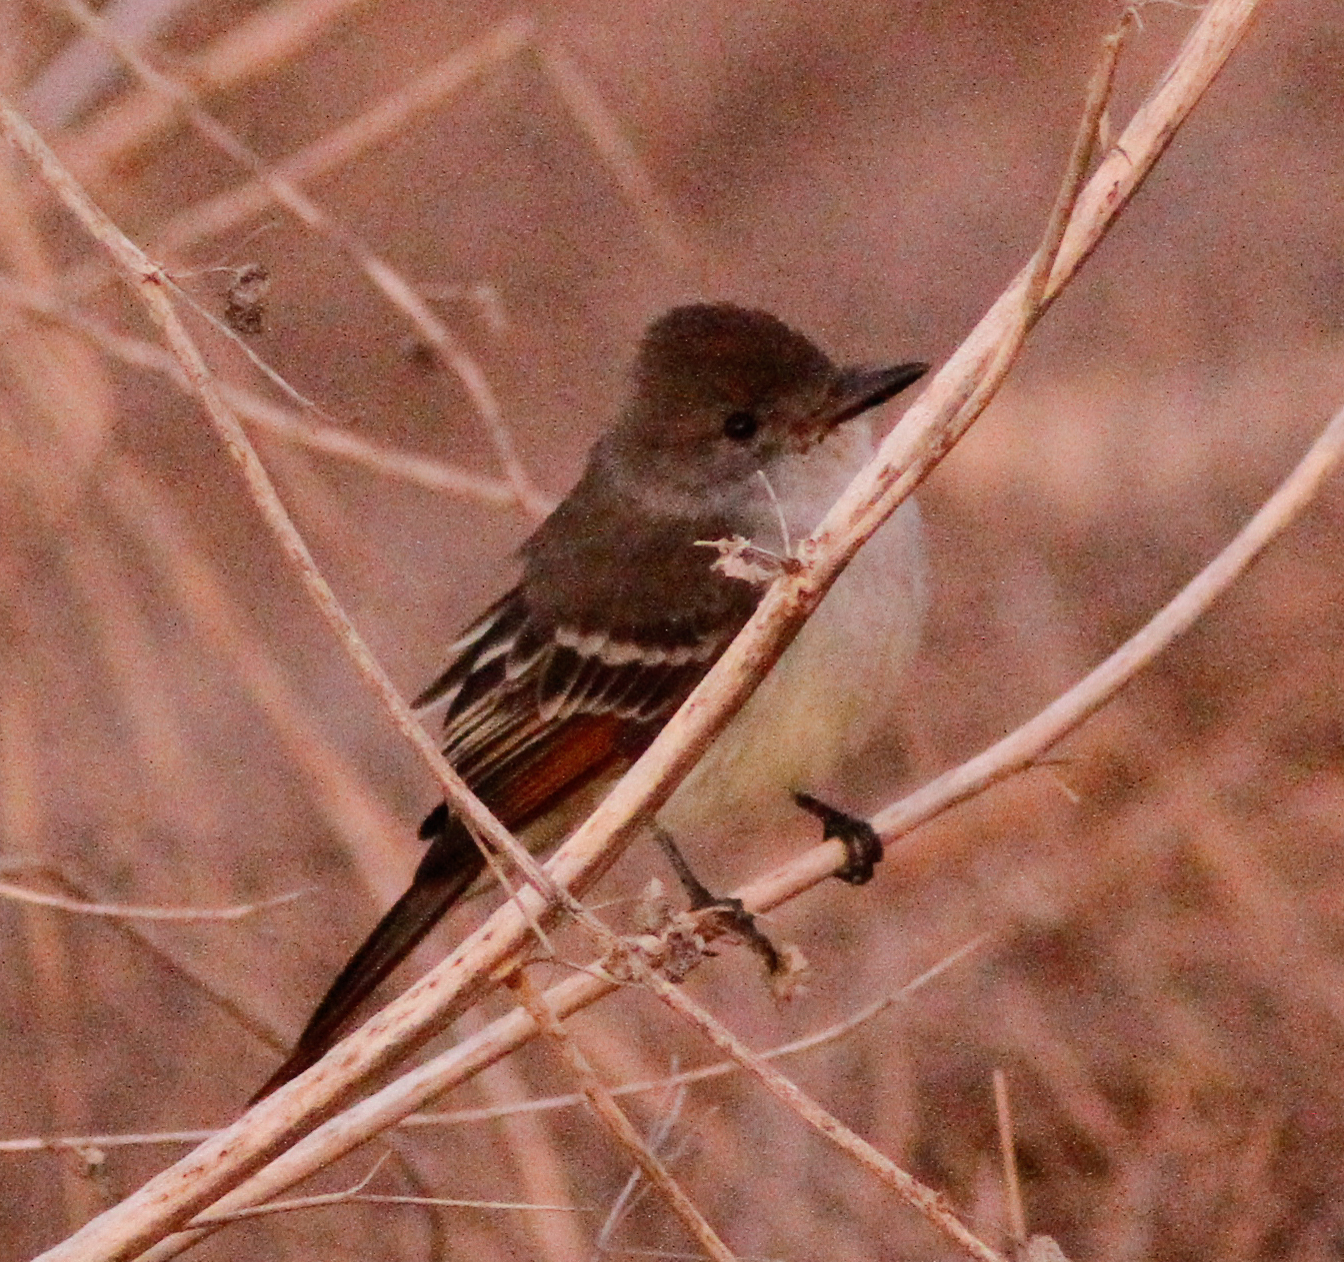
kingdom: Animalia
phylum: Chordata
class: Aves
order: Passeriformes
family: Tyrannidae
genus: Myiarchus
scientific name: Myiarchus cinerascens
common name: Ash-throated flycatcher
